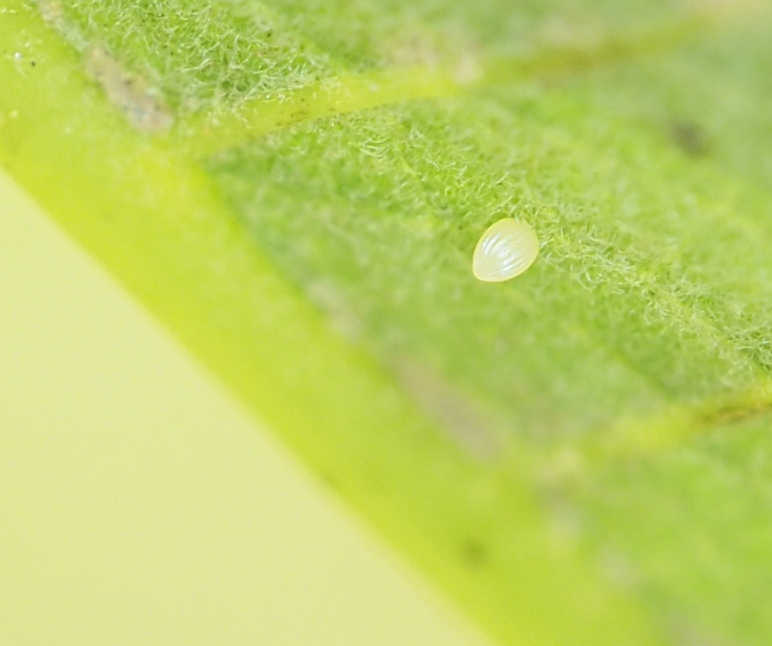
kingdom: Animalia
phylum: Arthropoda
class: Insecta
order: Lepidoptera
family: Nymphalidae
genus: Danaus
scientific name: Danaus plexippus
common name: Monarch
